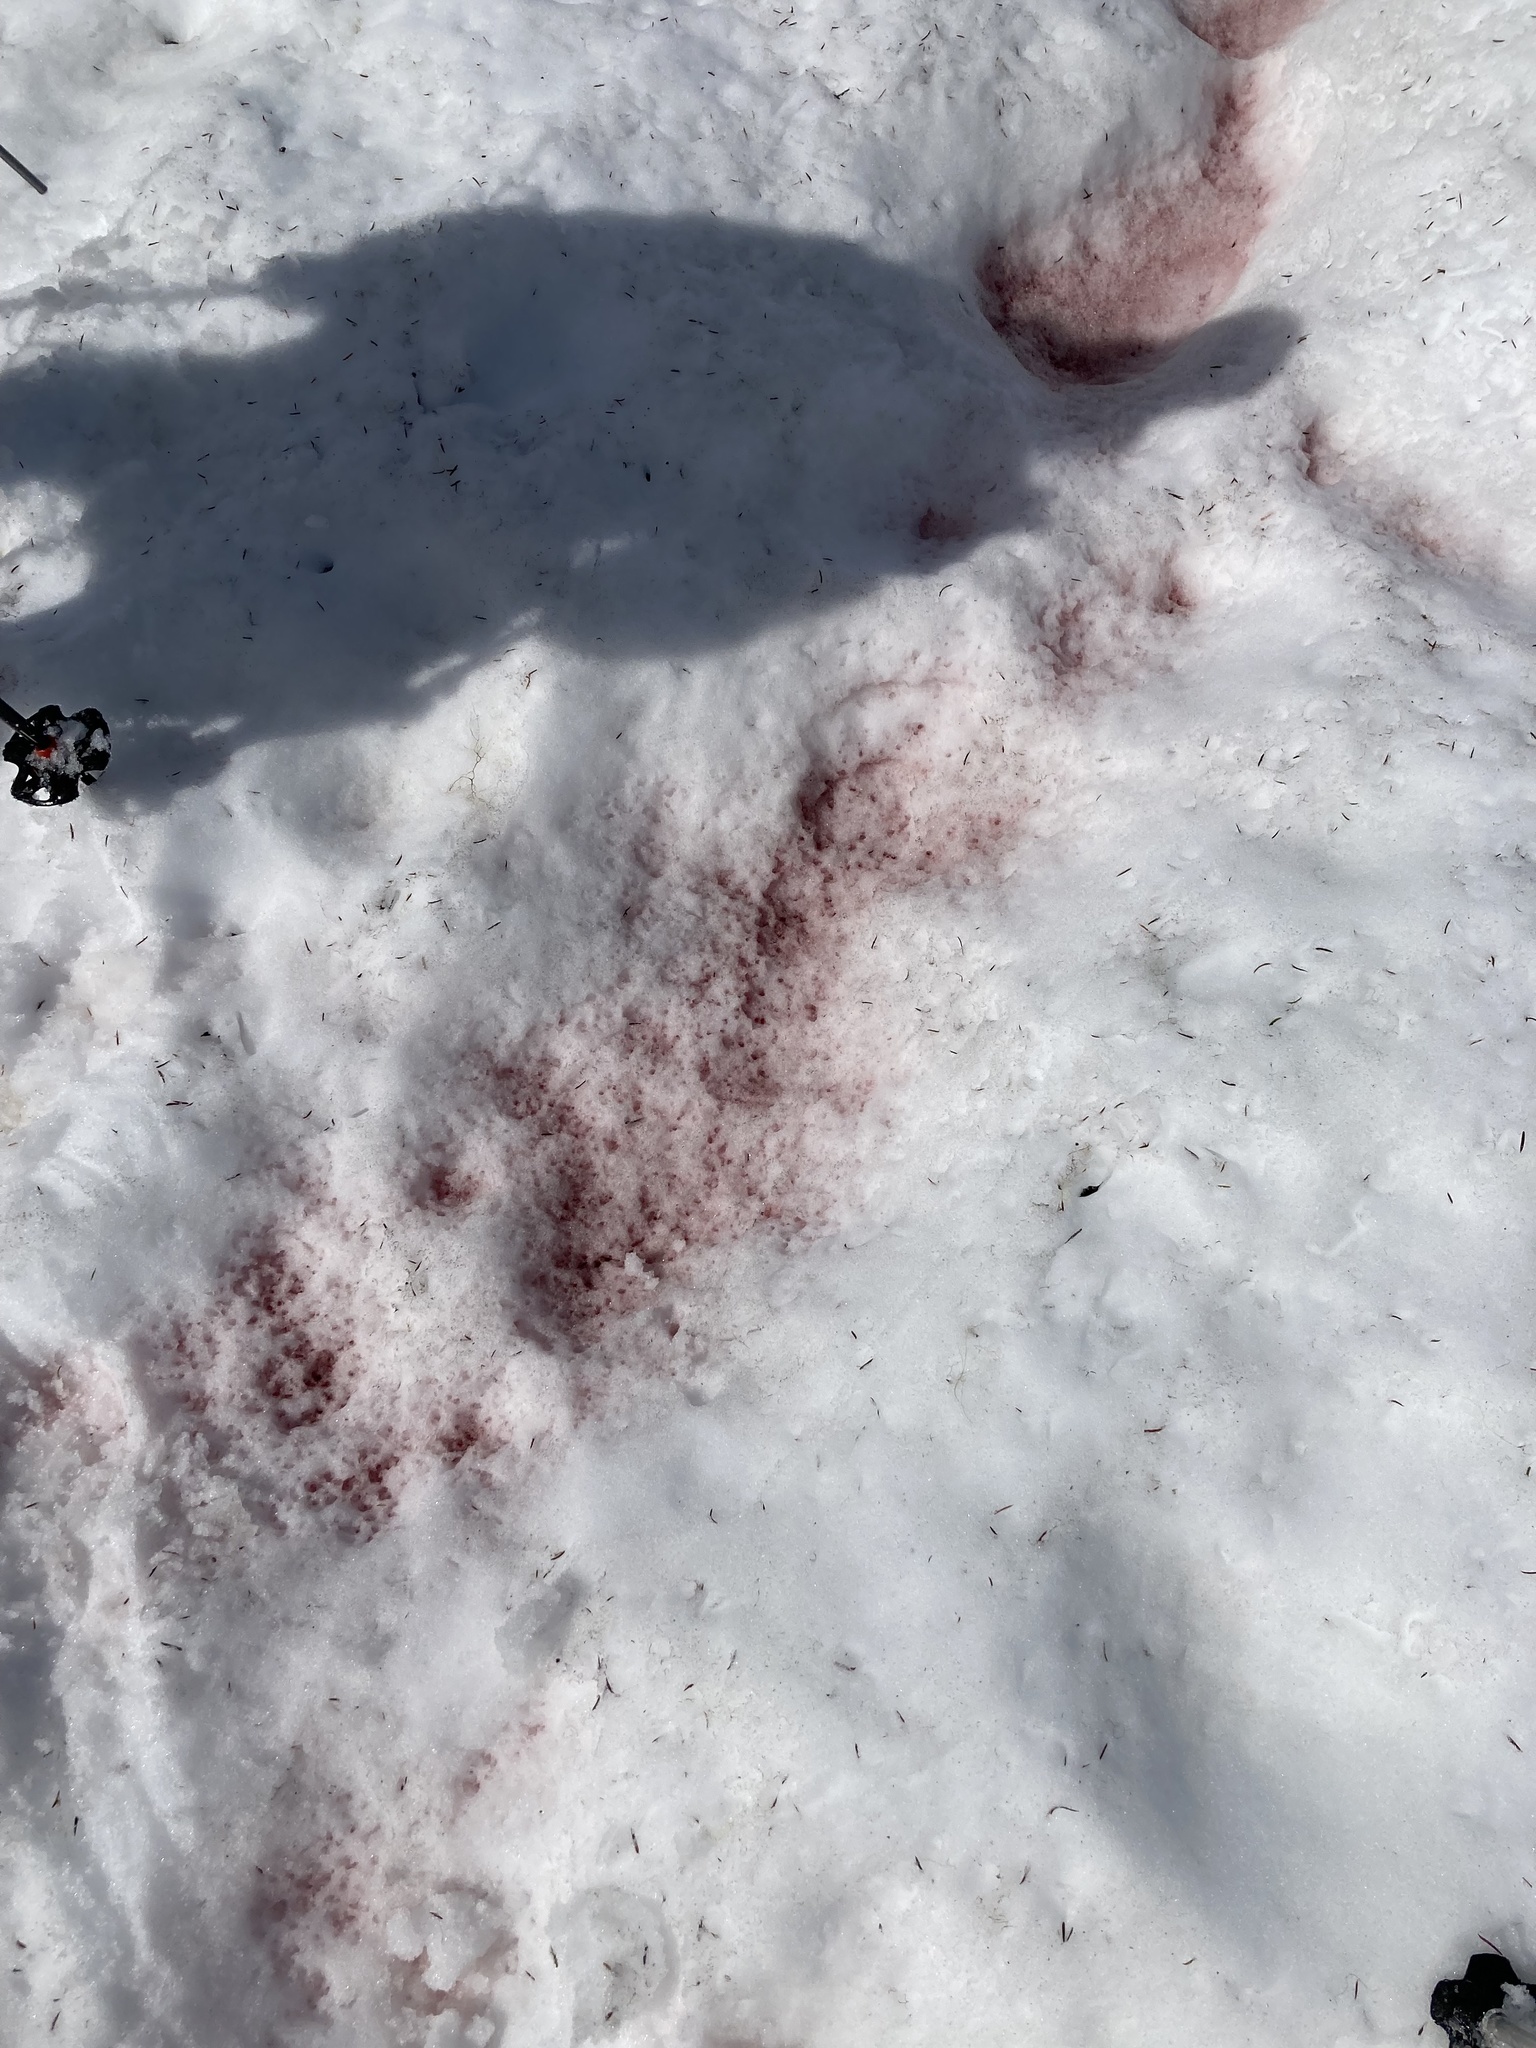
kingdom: Plantae
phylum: Chlorophyta
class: Chlorophyceae
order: Volvocales
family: Chlamydomonadaceae
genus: Chlamydomonas
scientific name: Chlamydomonas nivalis
